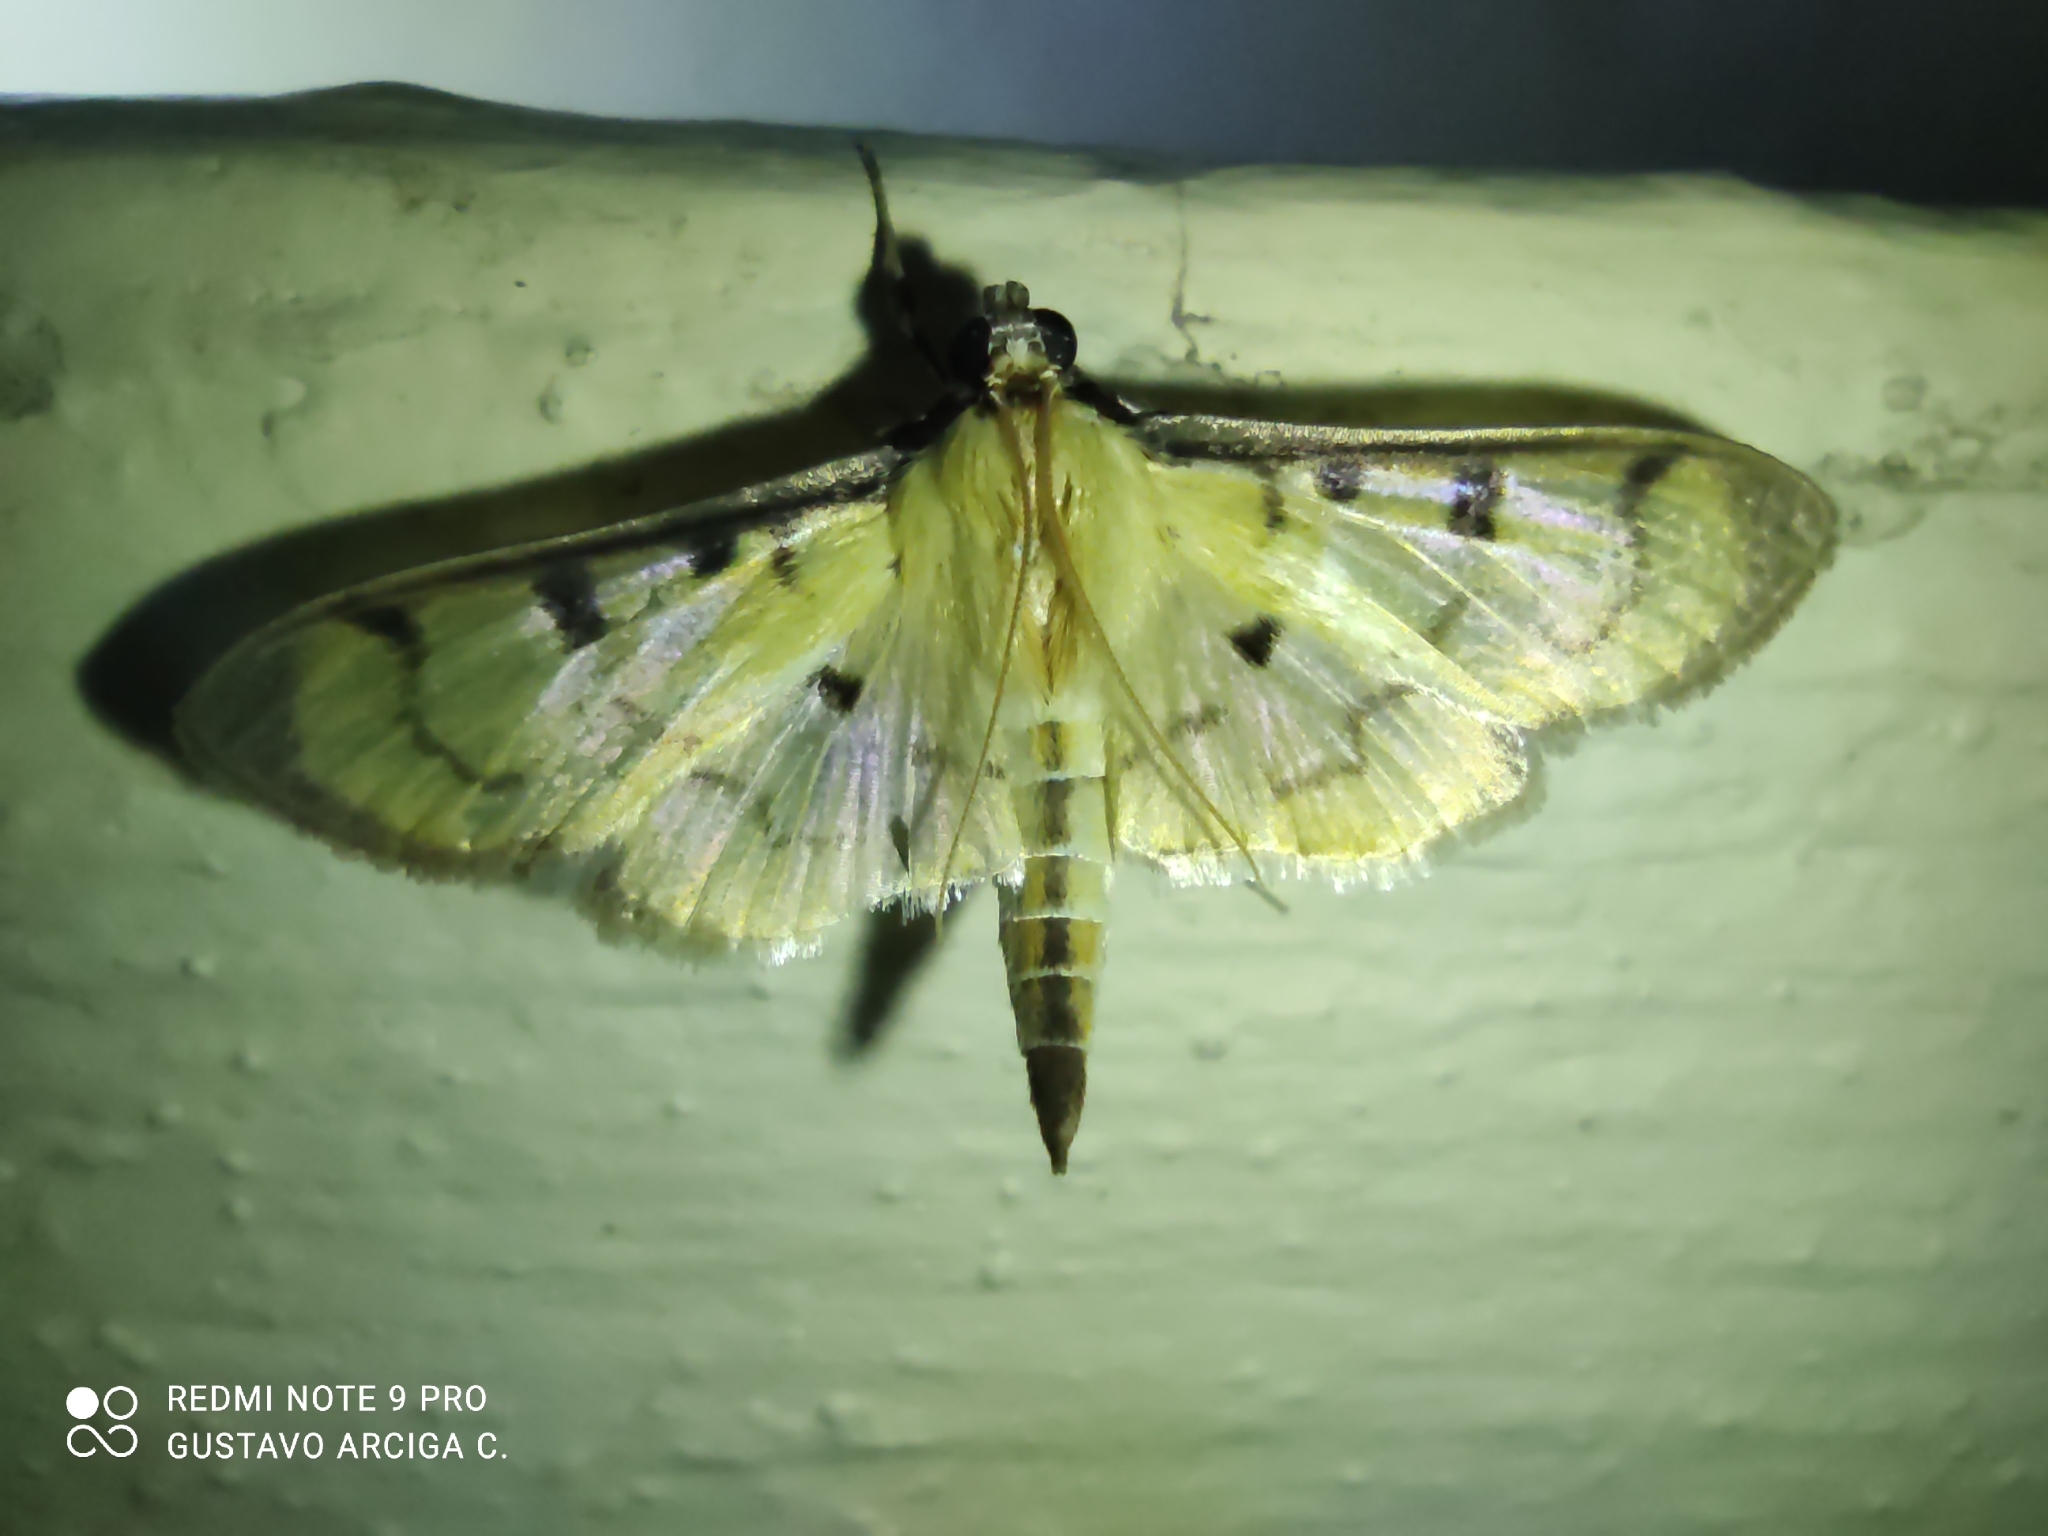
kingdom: Animalia
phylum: Arthropoda
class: Insecta
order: Lepidoptera
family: Crambidae
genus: Pilocrocis
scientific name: Pilocrocis plumbicostalis
